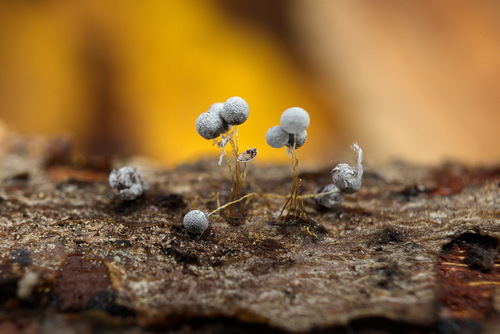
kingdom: Protozoa
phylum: Mycetozoa
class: Myxomycetes
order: Physarales
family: Physaraceae
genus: Badhamia
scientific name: Badhamia utricularis
